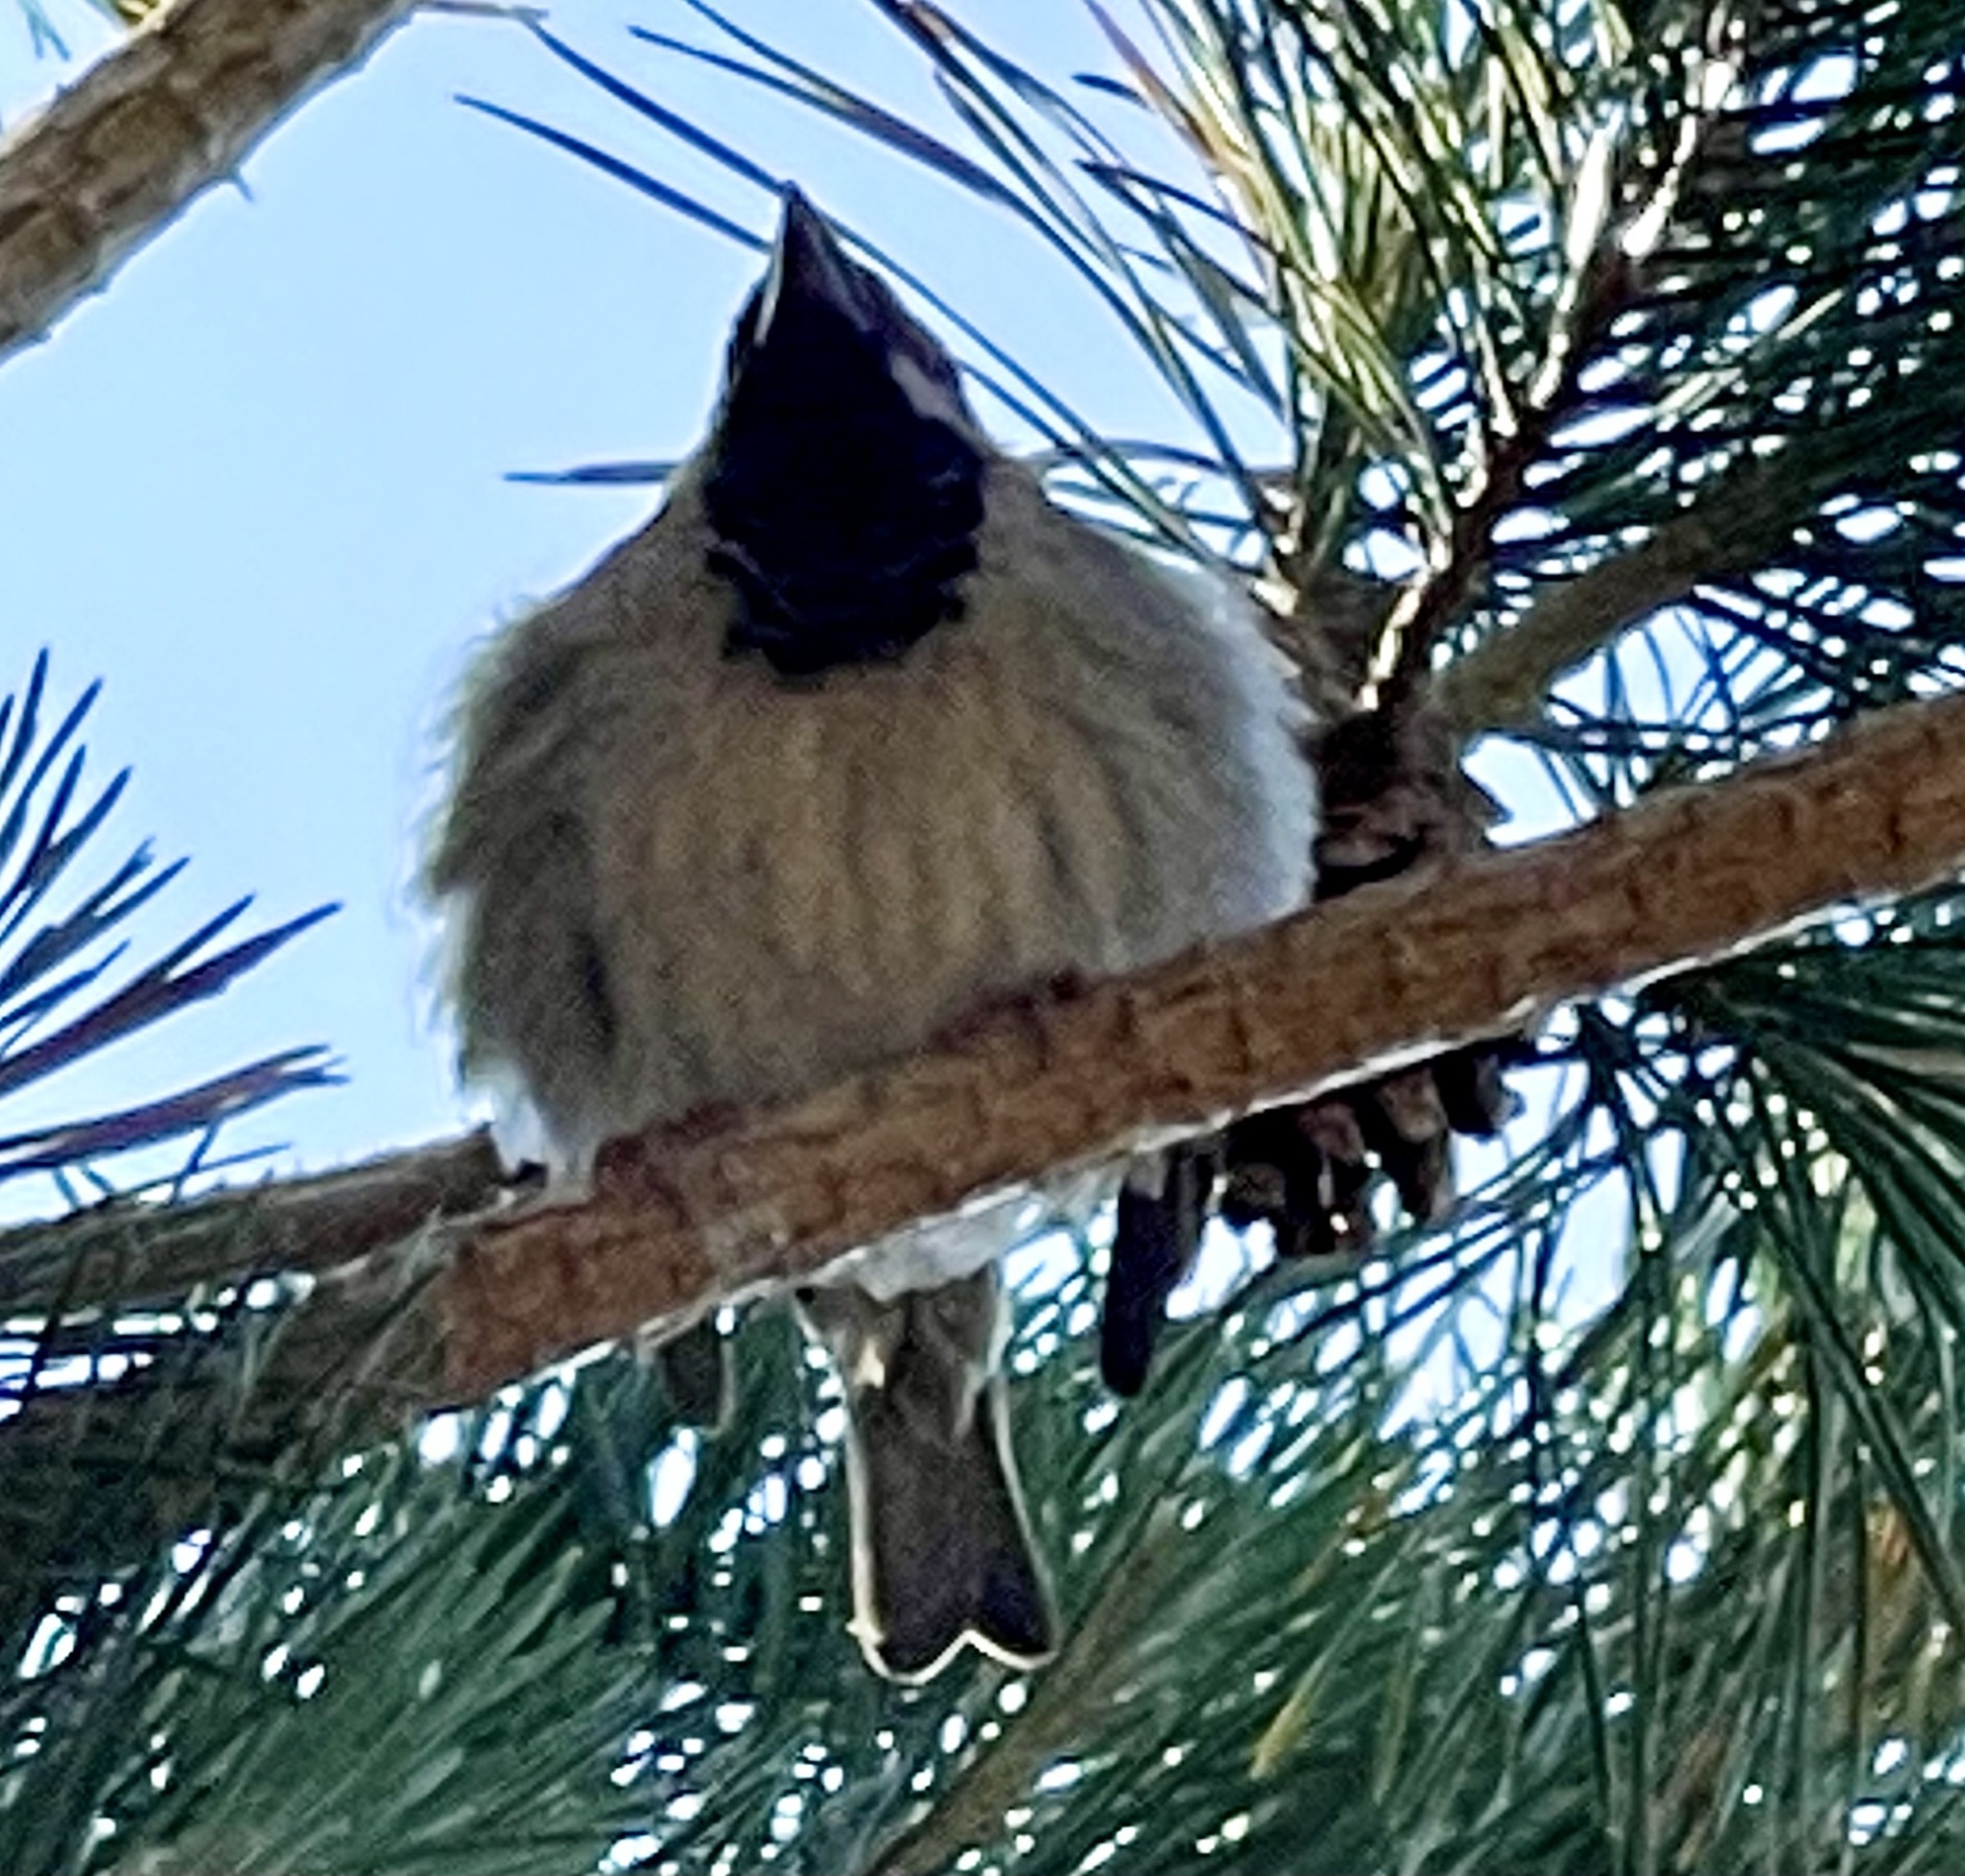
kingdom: Animalia
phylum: Chordata
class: Aves
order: Passeriformes
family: Passeridae
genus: Passer
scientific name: Passer domesticus
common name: House sparrow
